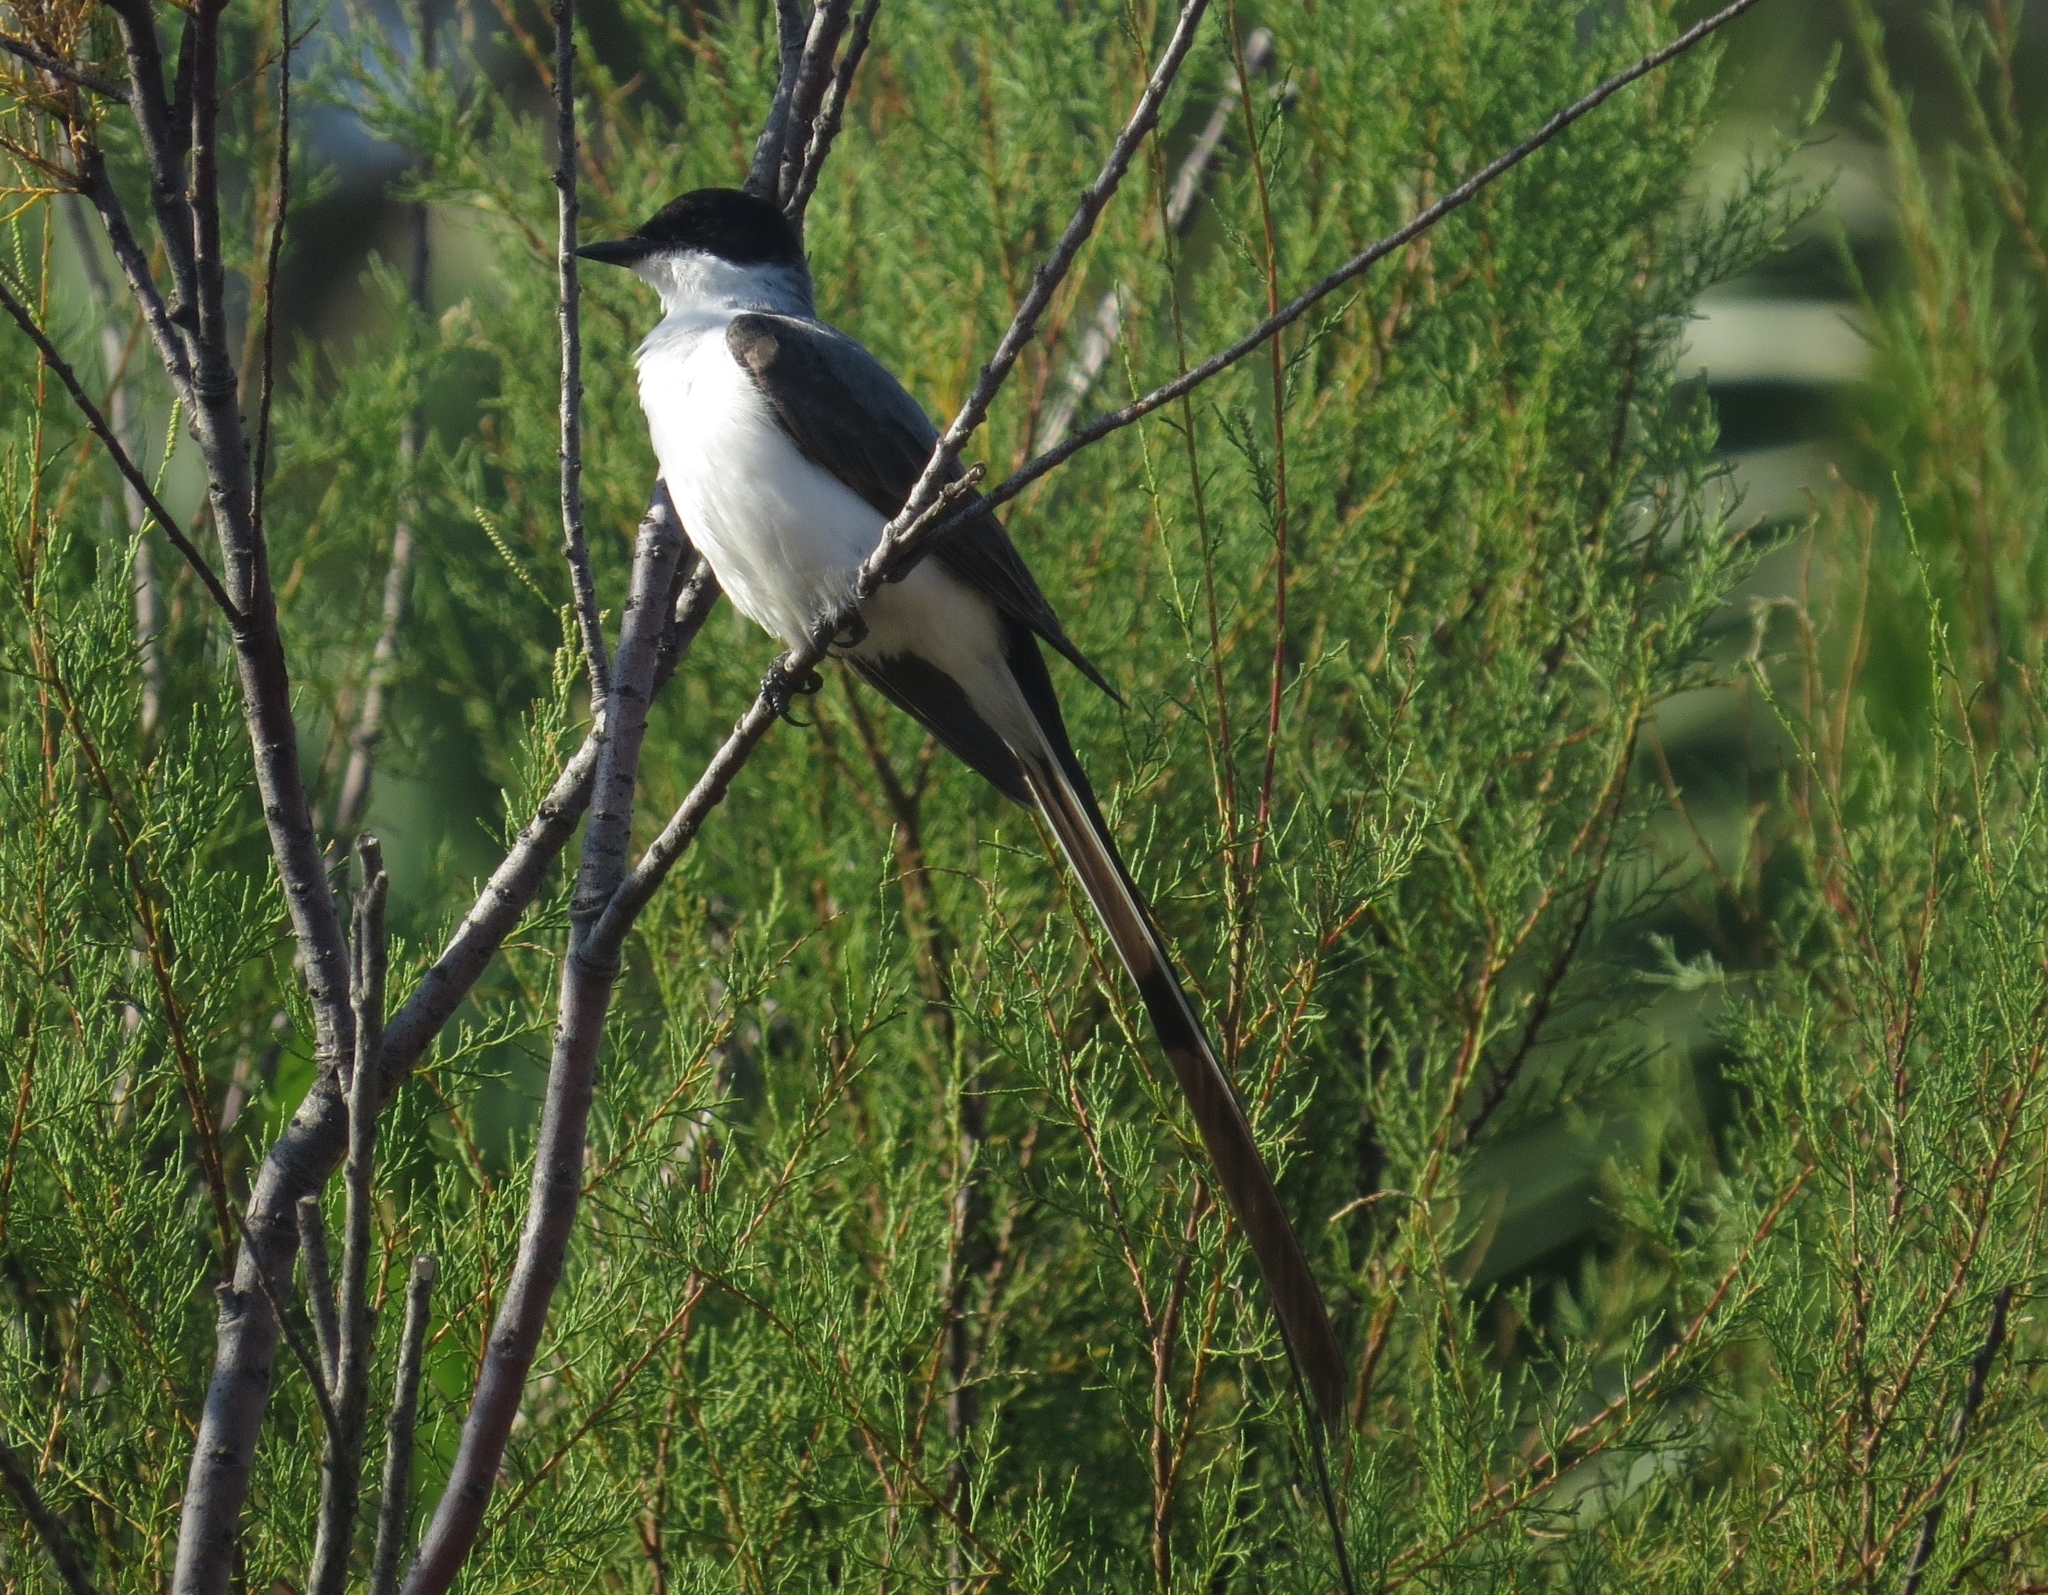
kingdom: Animalia
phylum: Chordata
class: Aves
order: Passeriformes
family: Tyrannidae
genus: Tyrannus
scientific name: Tyrannus savana
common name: Fork-tailed flycatcher
